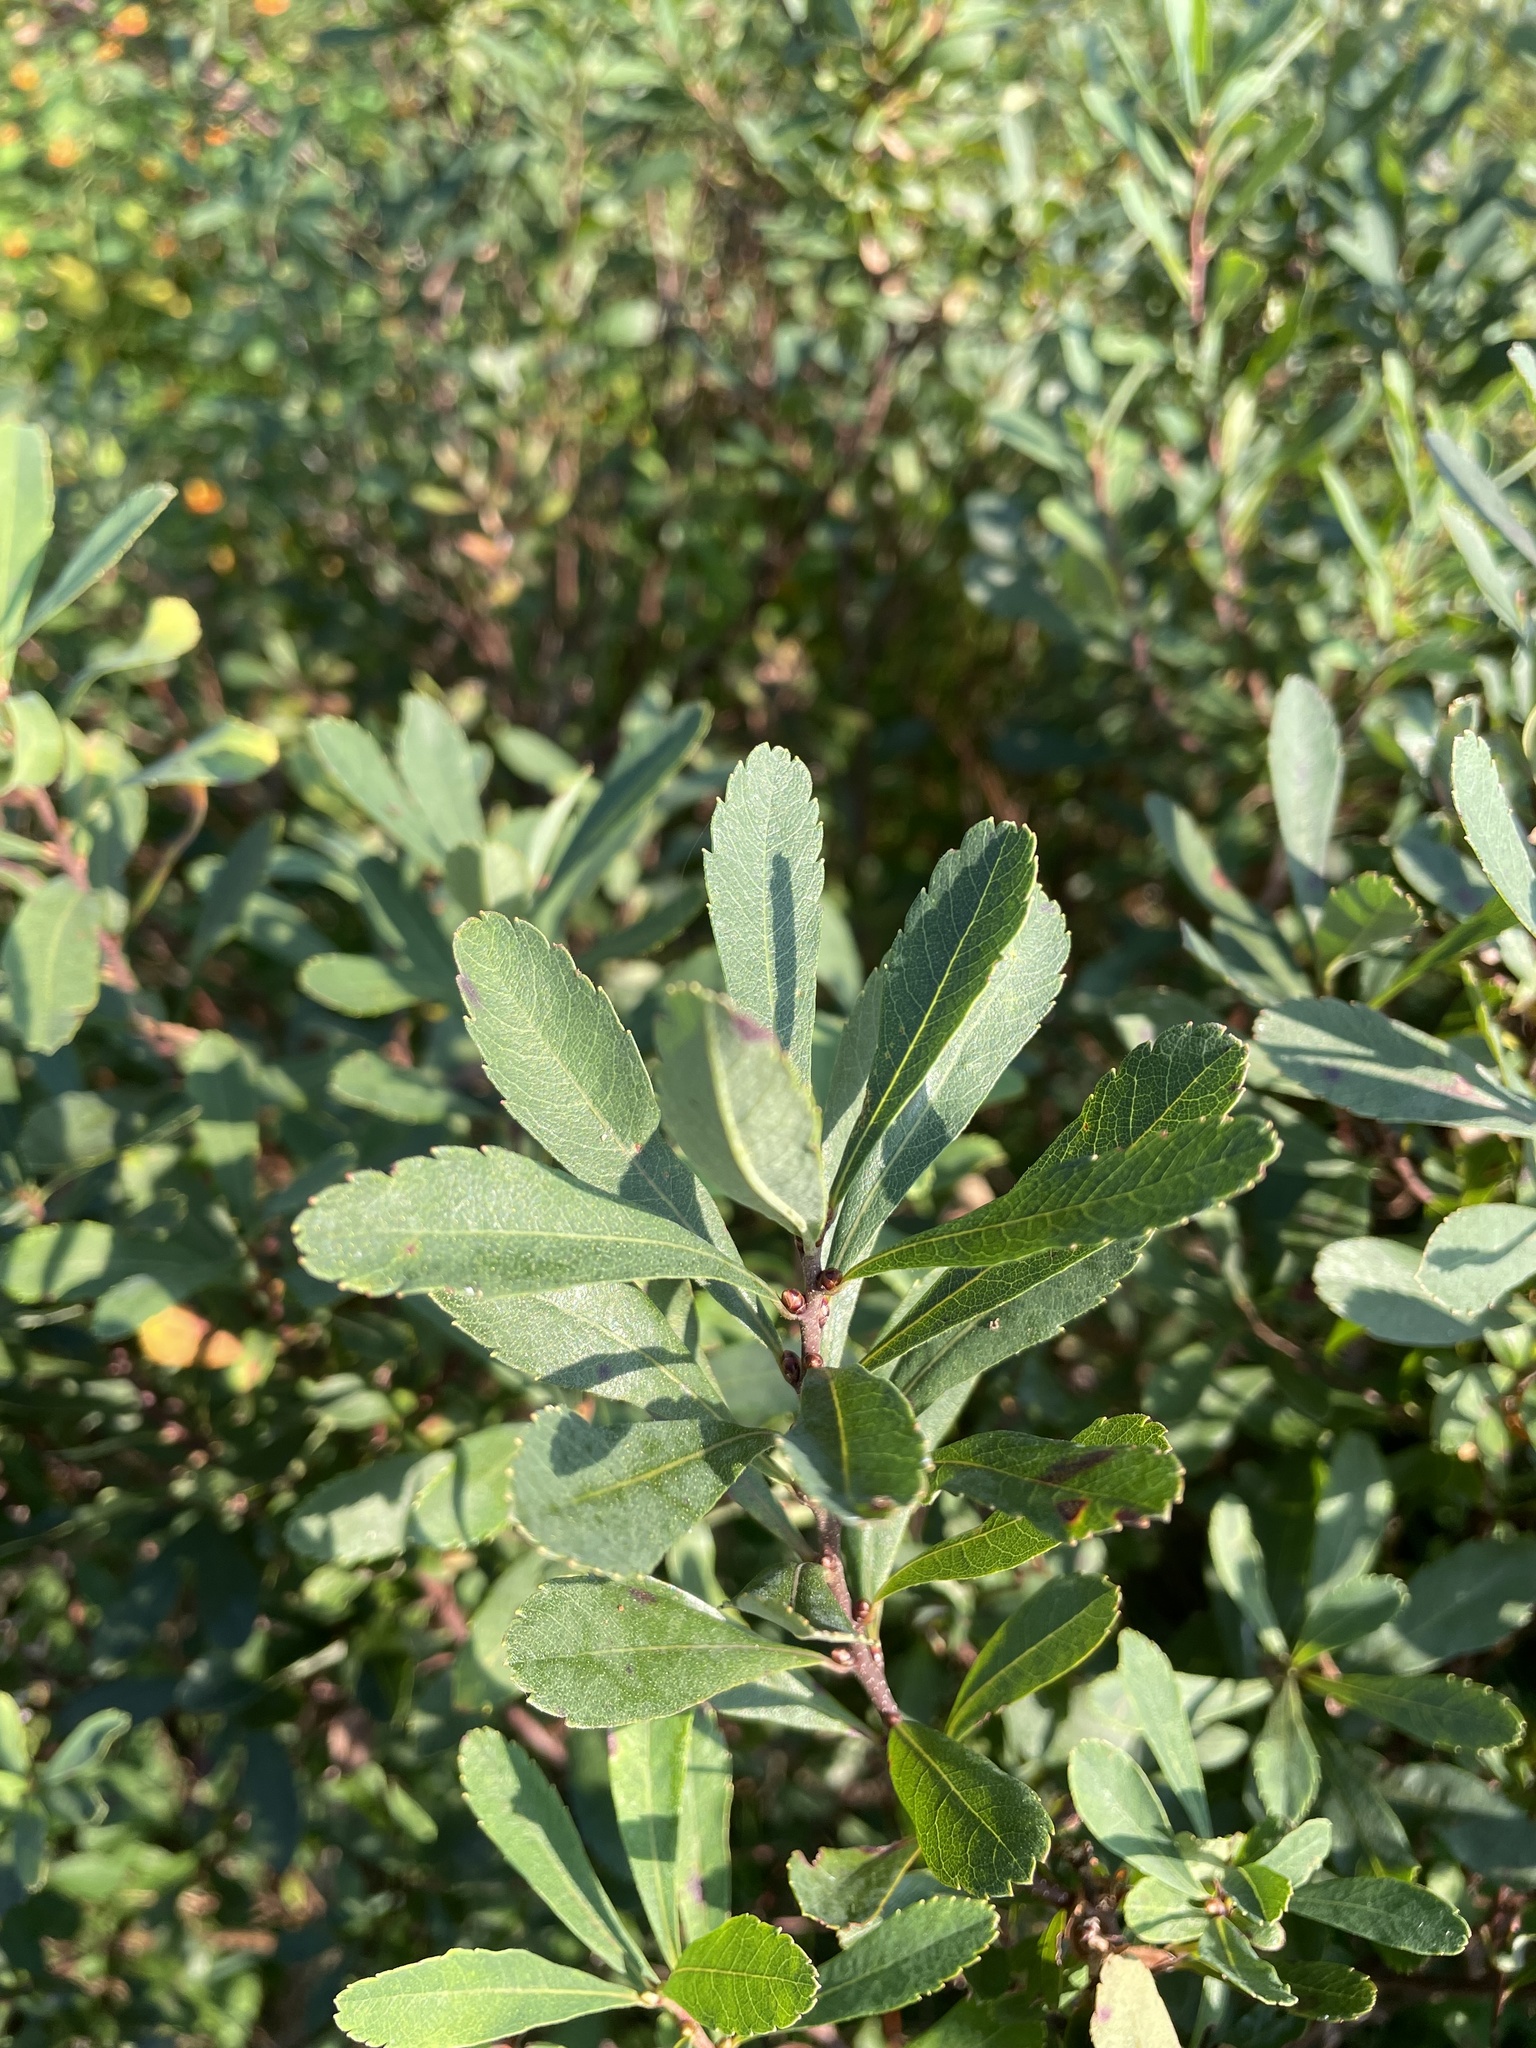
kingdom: Plantae
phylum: Tracheophyta
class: Magnoliopsida
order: Fagales
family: Myricaceae
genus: Myrica
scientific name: Myrica gale
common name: Sweet gale
